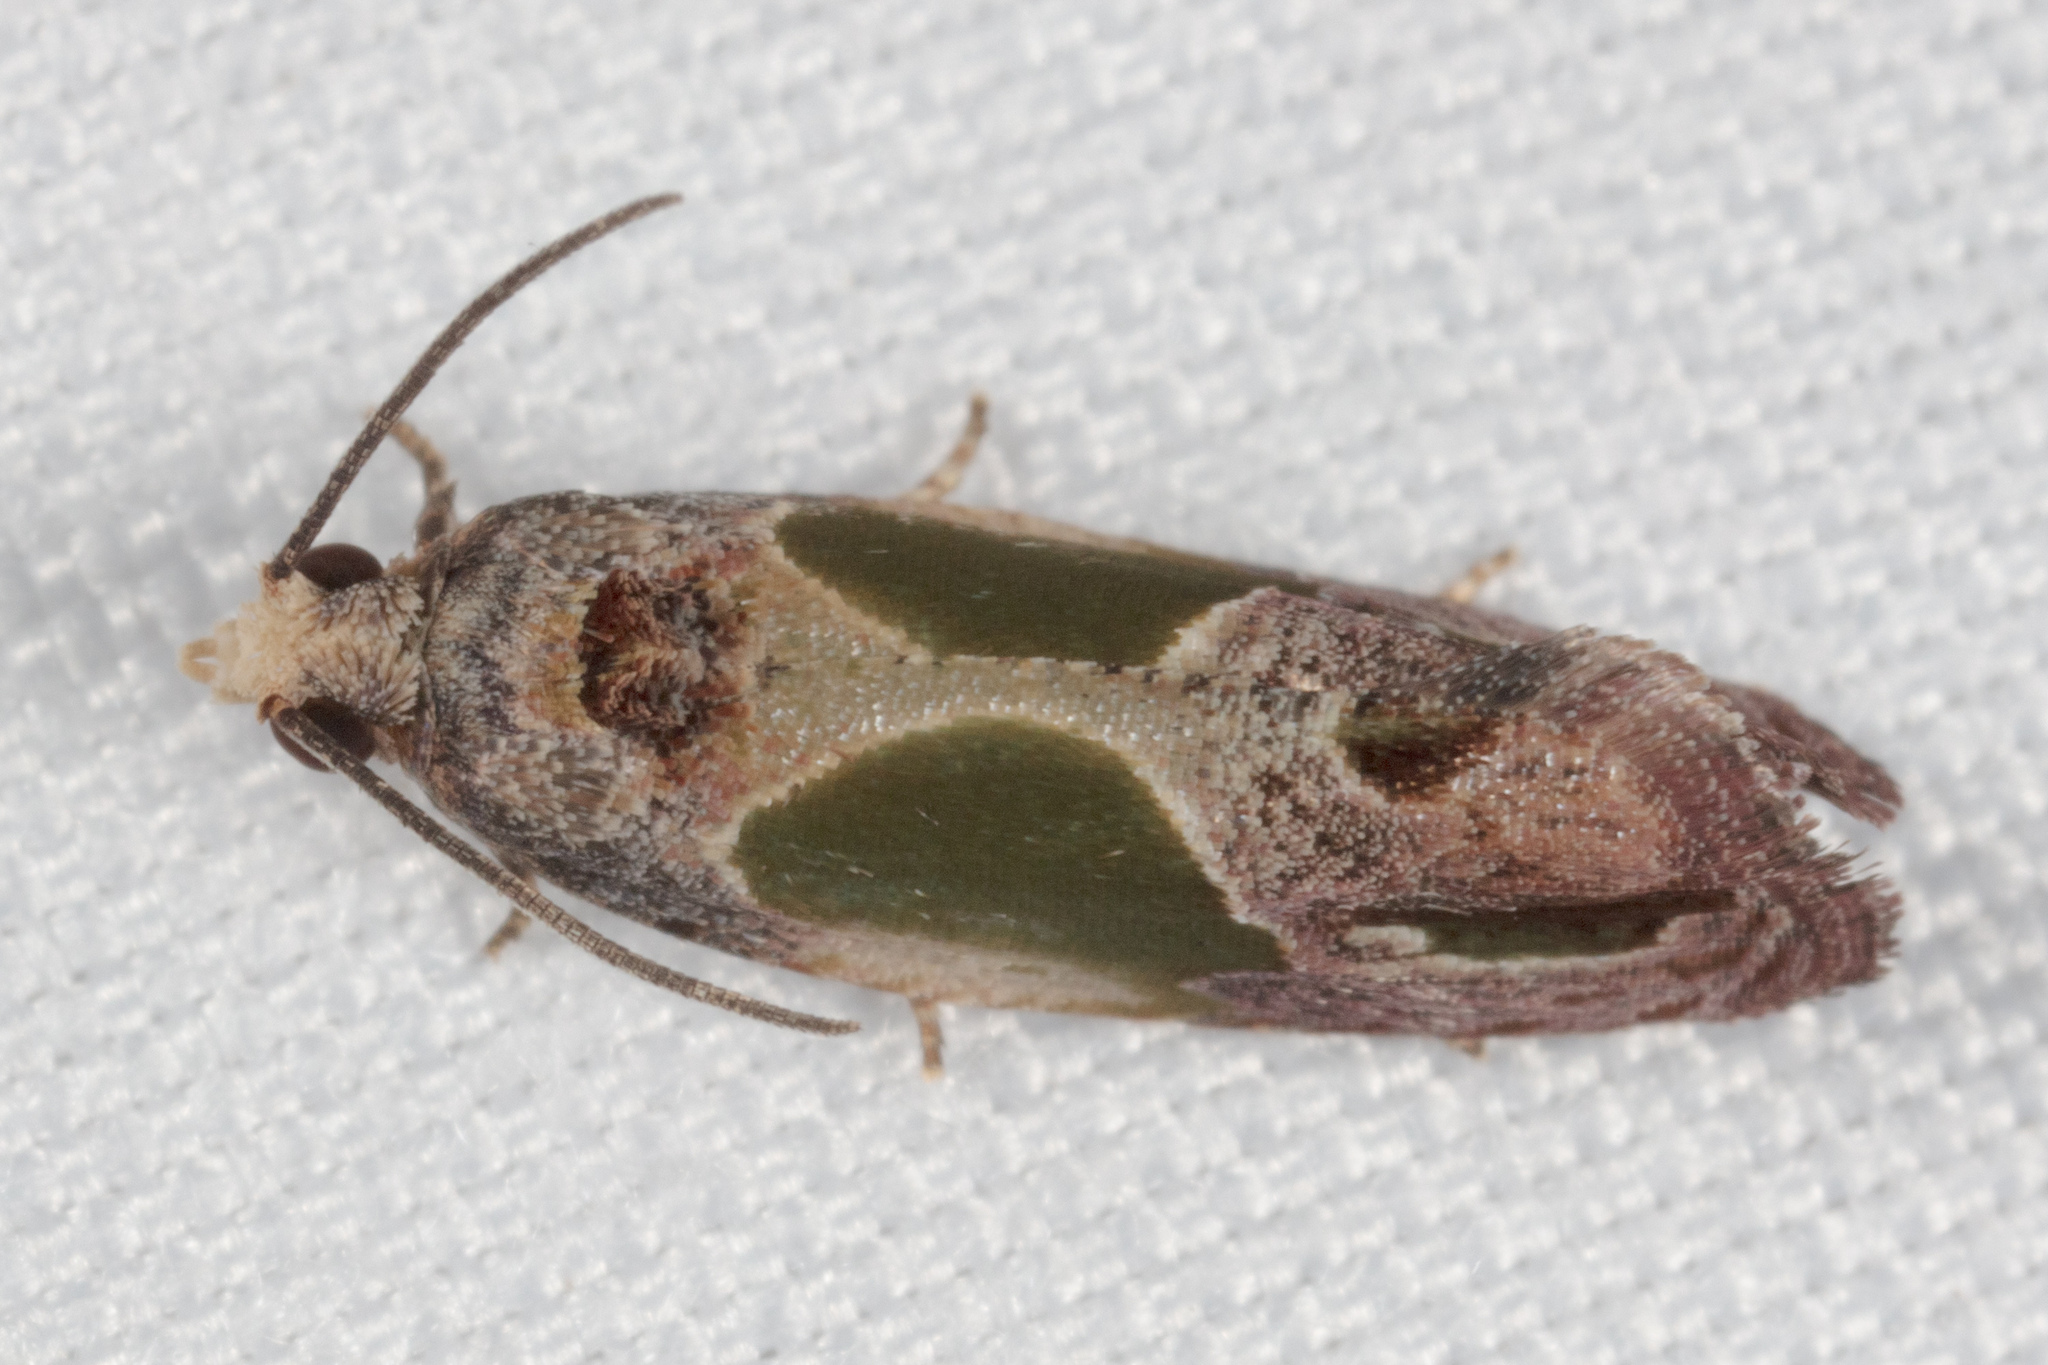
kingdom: Animalia
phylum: Arthropoda
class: Insecta
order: Lepidoptera
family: Tortricidae
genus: Eumarozia
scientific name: Eumarozia malachitana
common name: Sculptured moth
